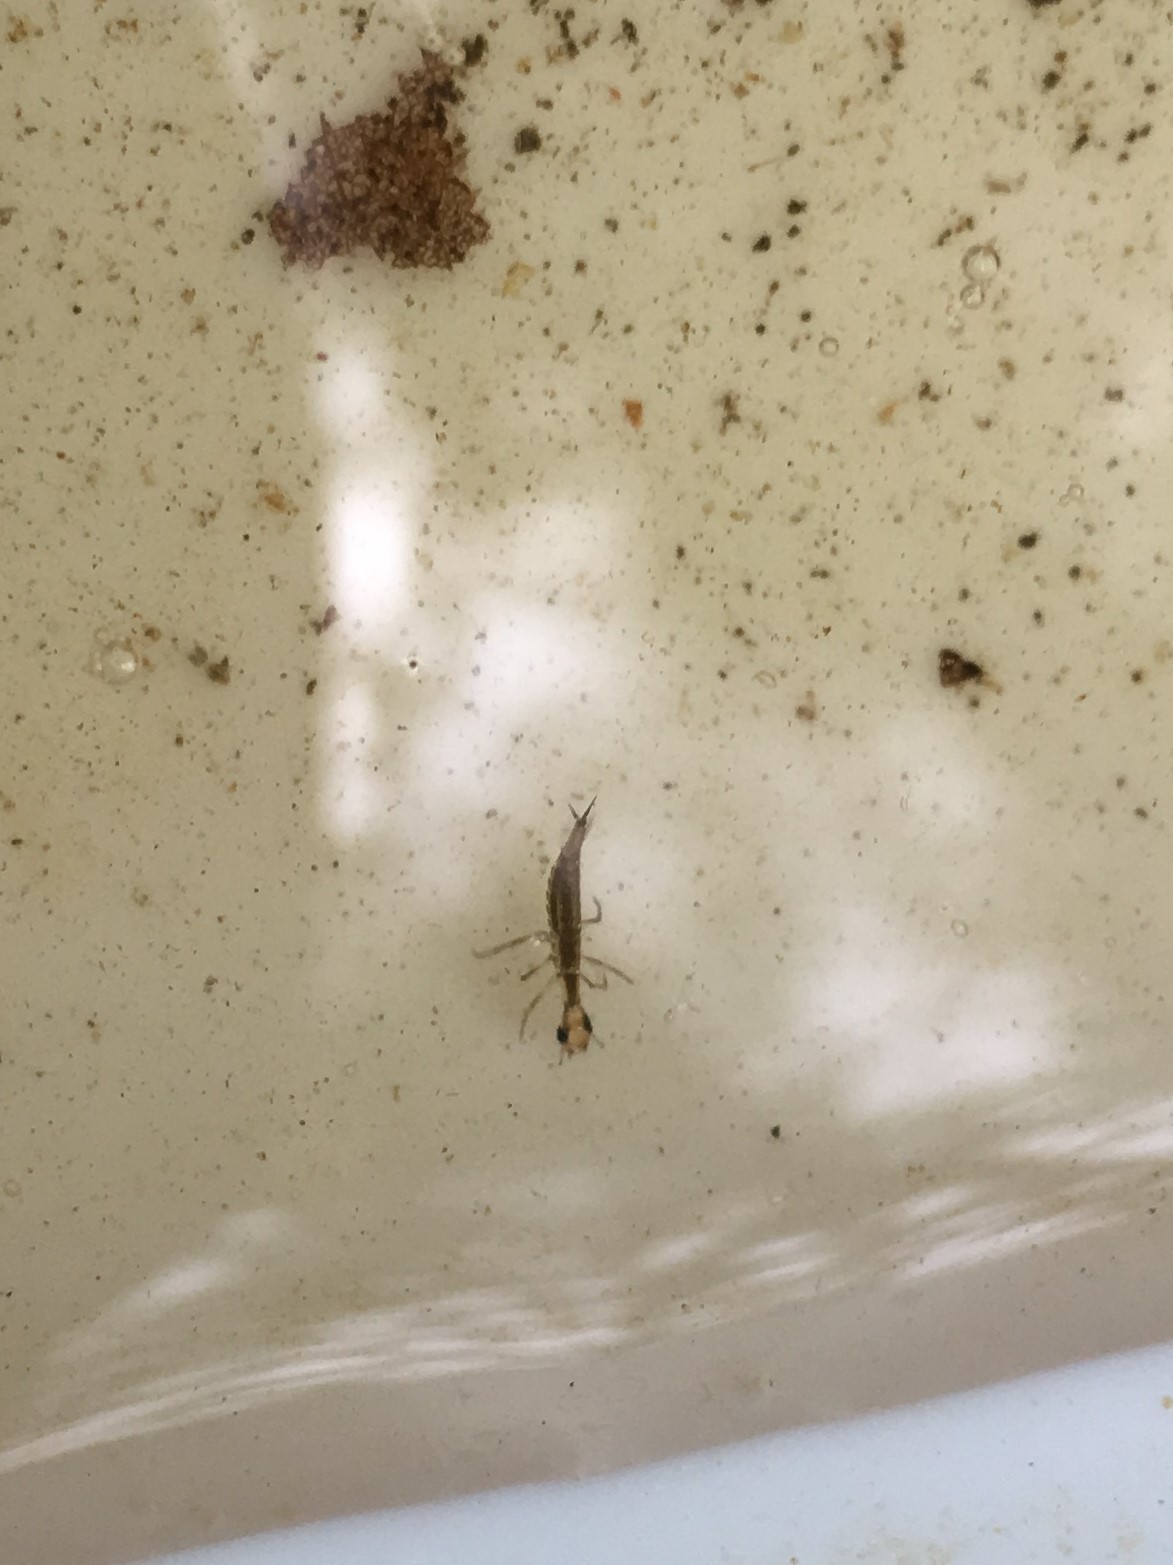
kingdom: Animalia
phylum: Arthropoda
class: Insecta
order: Coleoptera
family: Dytiscidae
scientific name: Dytiscidae
